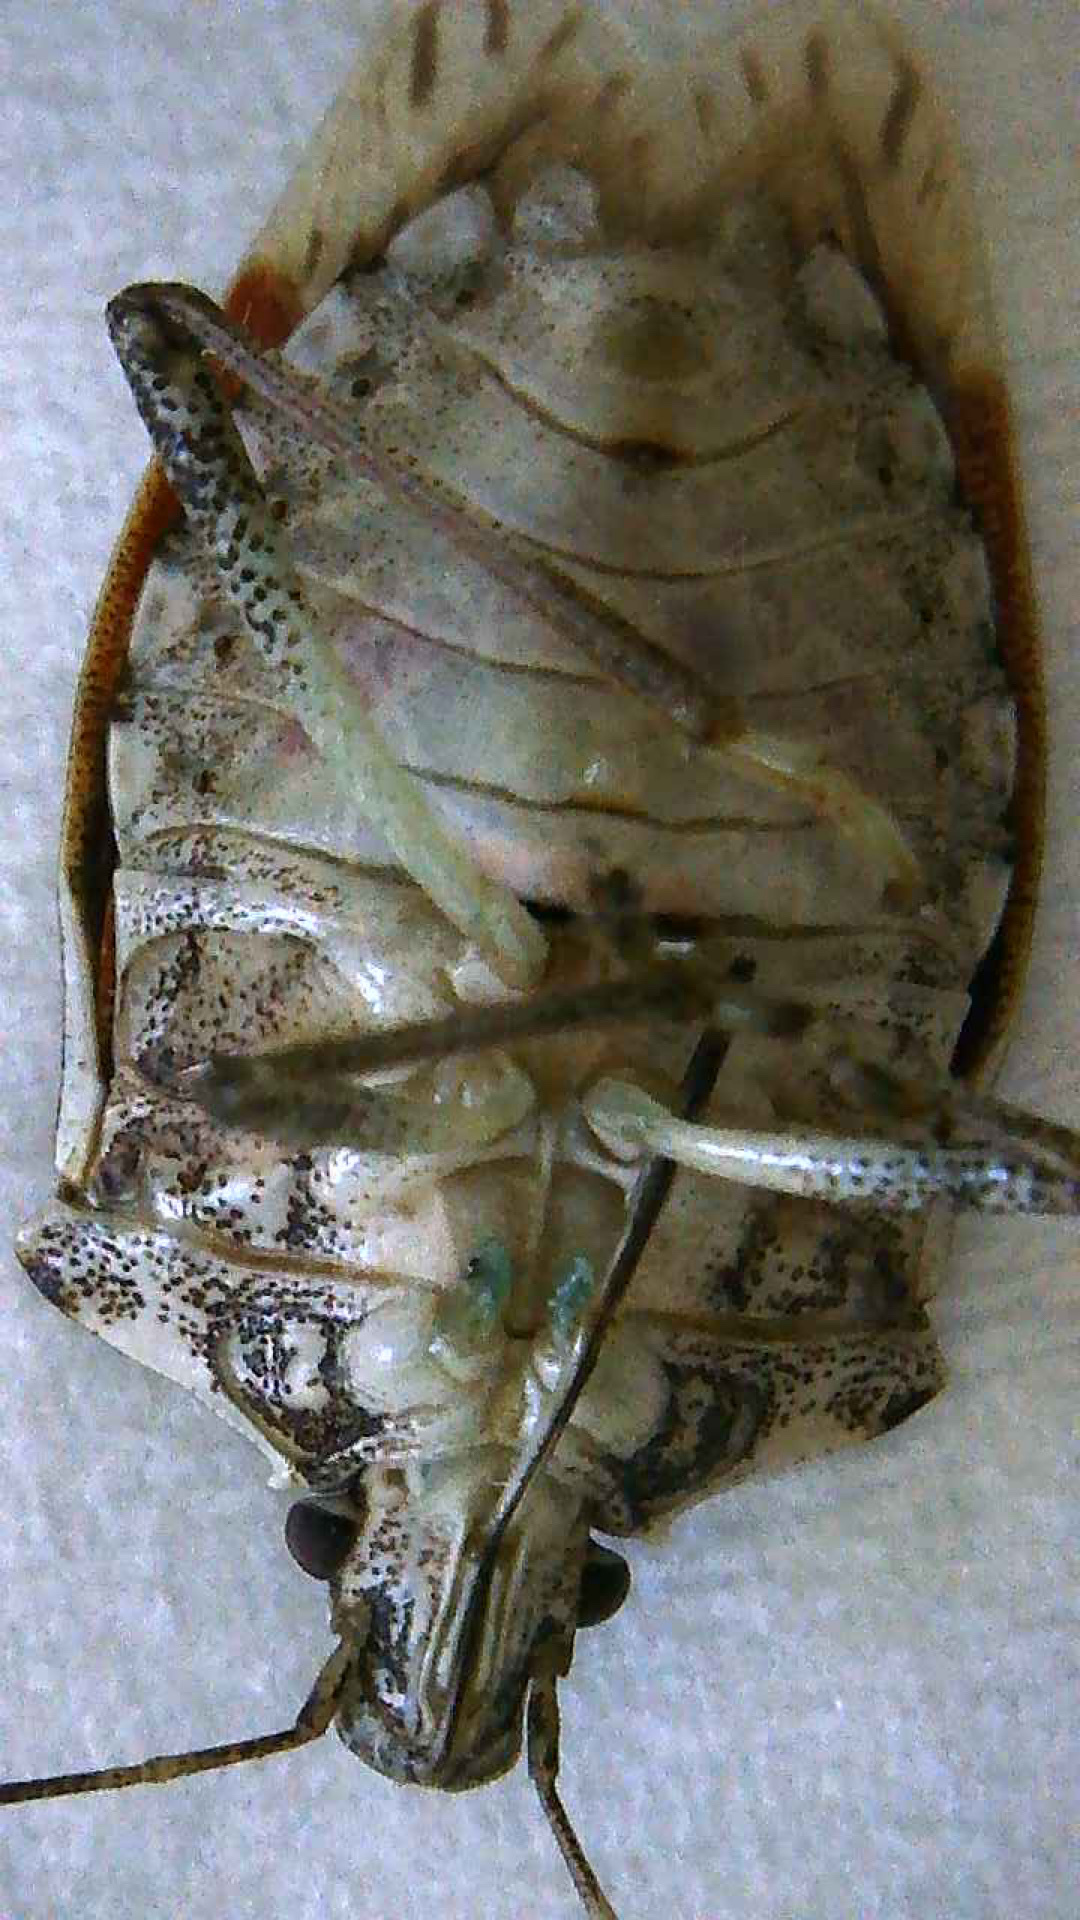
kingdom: Animalia
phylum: Arthropoda
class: Insecta
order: Hemiptera
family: Pentatomidae
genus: Halyomorpha
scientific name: Halyomorpha halys
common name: Brown marmorated stink bug
